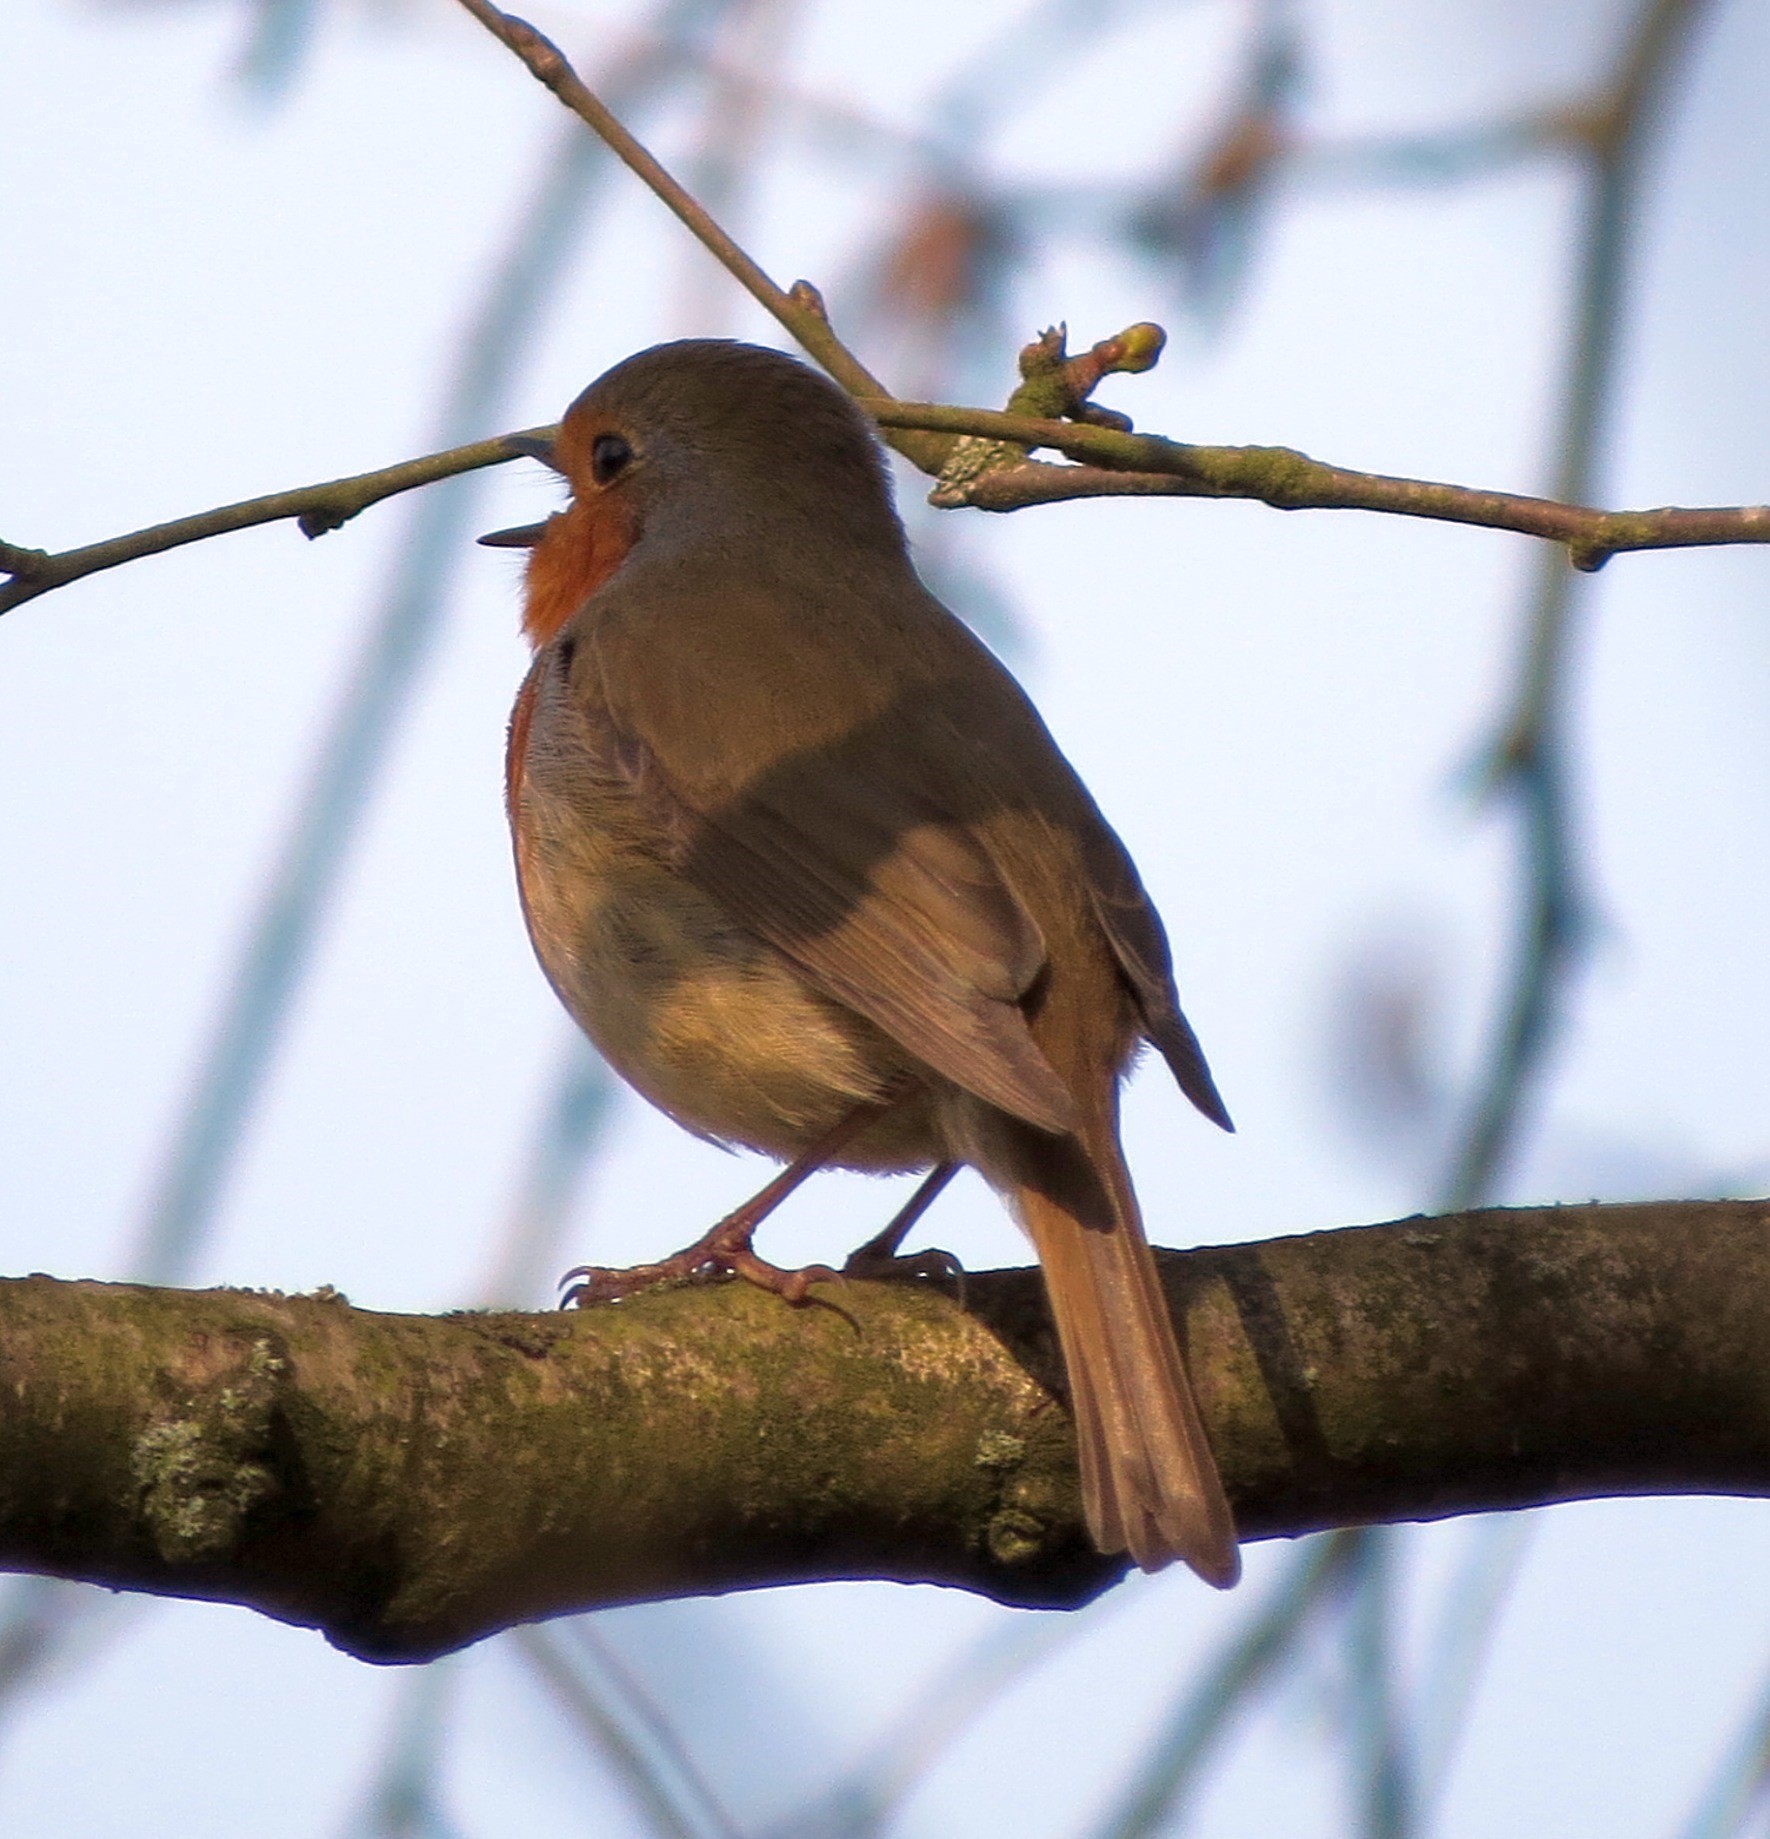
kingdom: Animalia
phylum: Chordata
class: Aves
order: Passeriformes
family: Muscicapidae
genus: Erithacus
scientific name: Erithacus rubecula
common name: European robin
